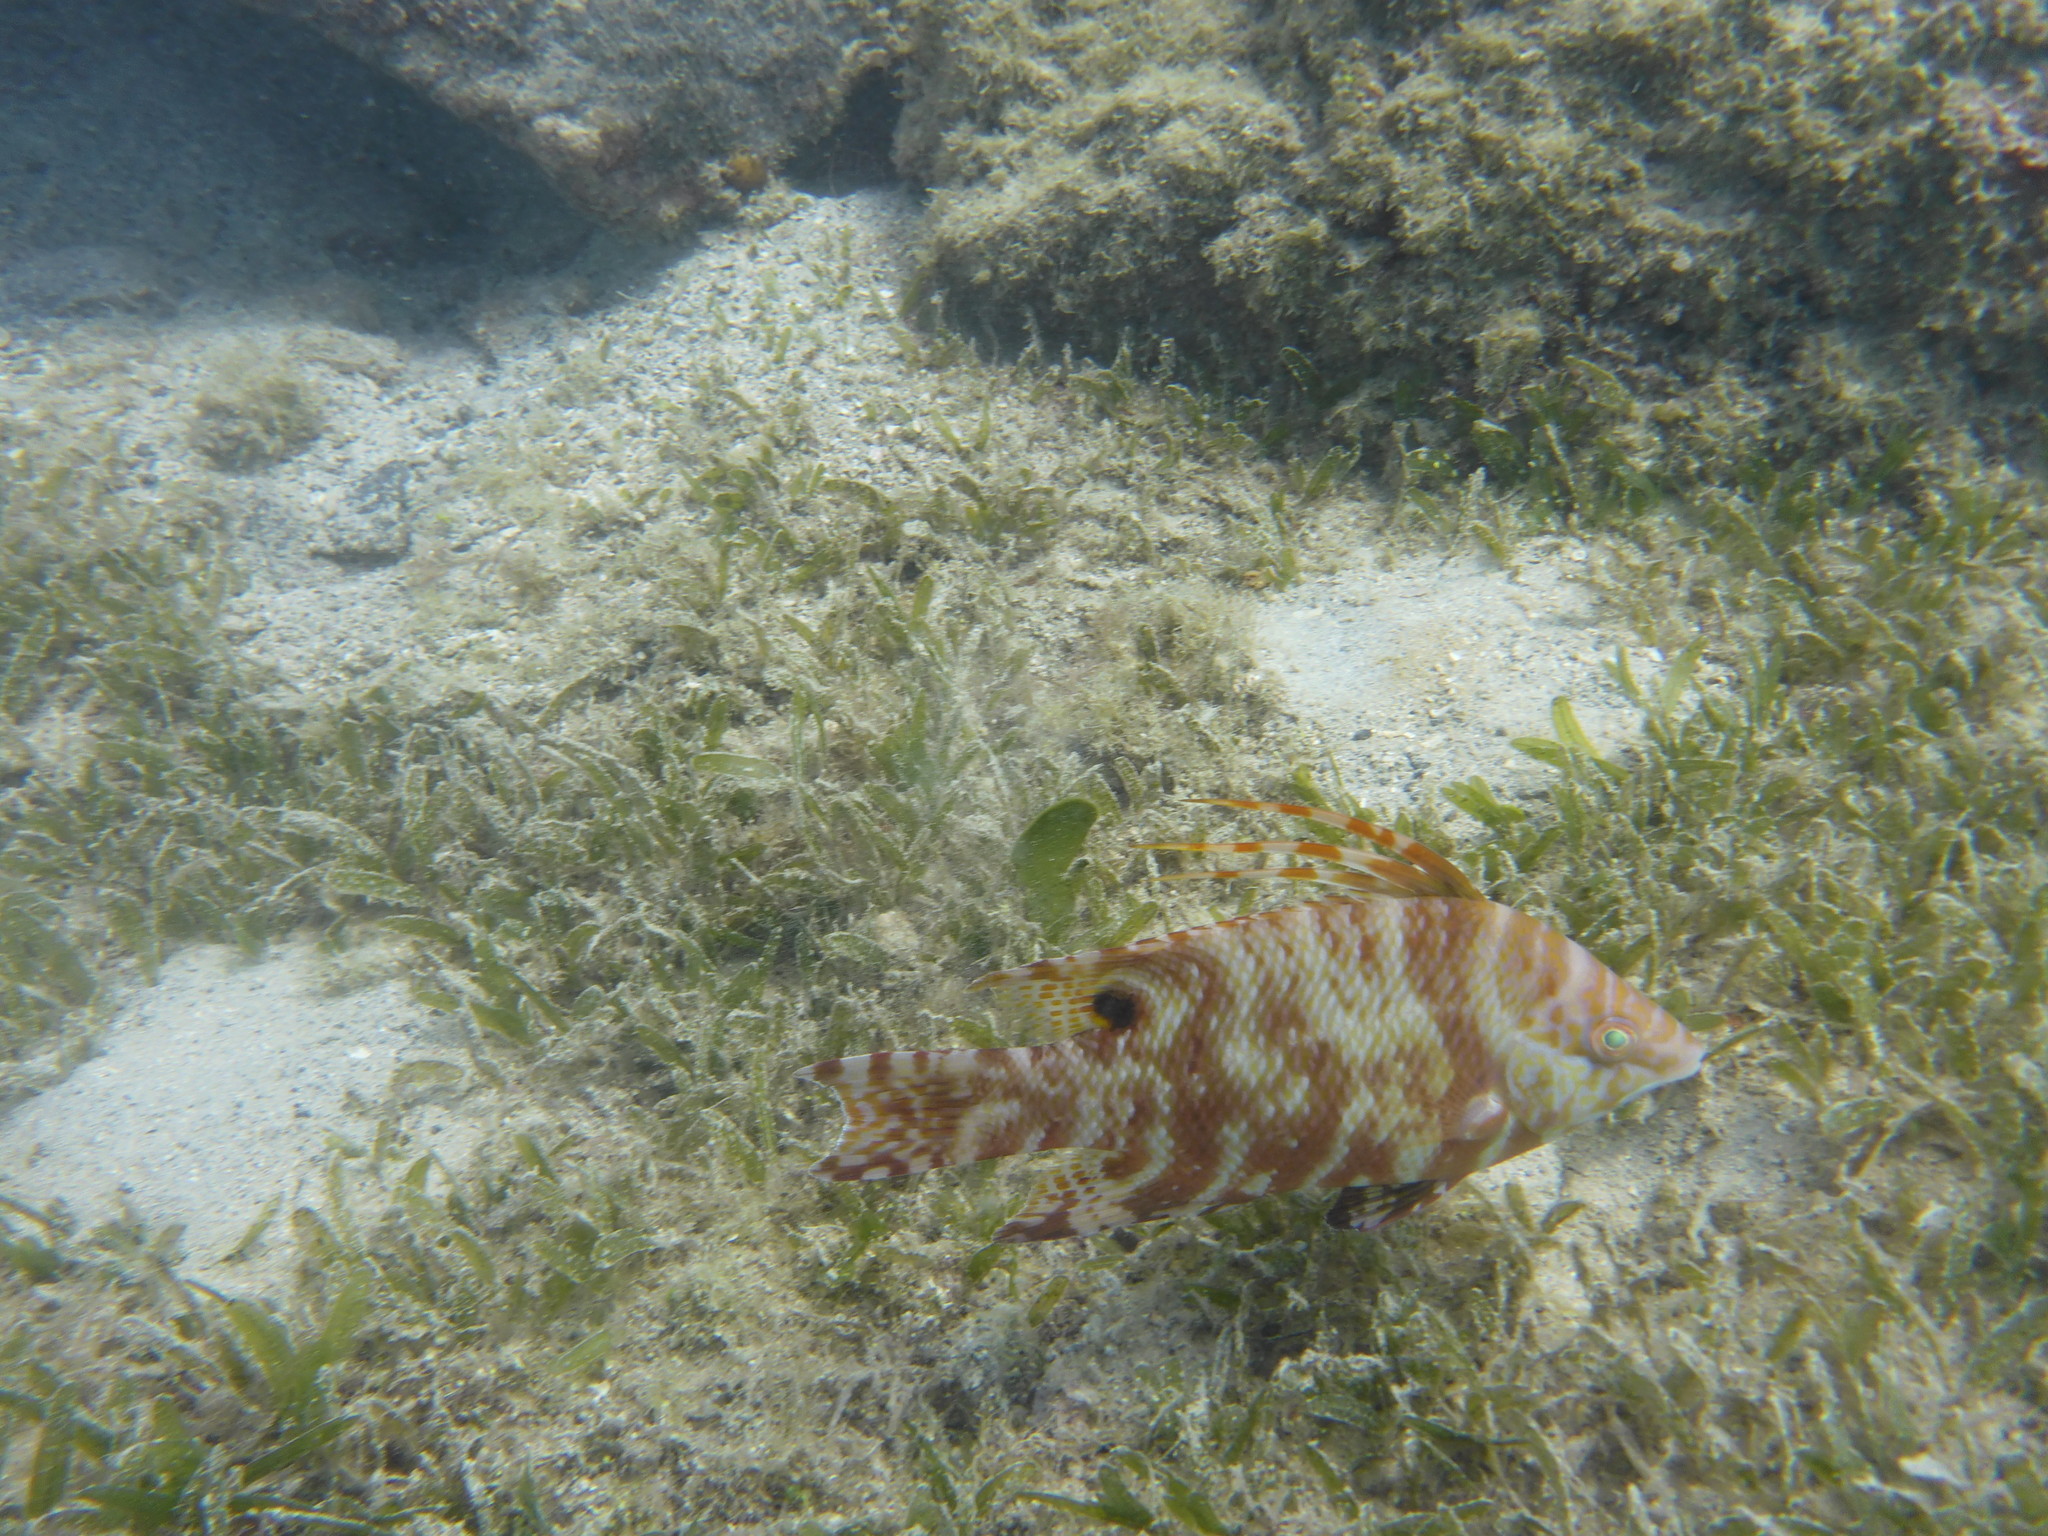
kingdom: Animalia
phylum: Chordata
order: Perciformes
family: Labridae
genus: Lachnolaimus
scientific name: Lachnolaimus maximus
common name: Hogfish
